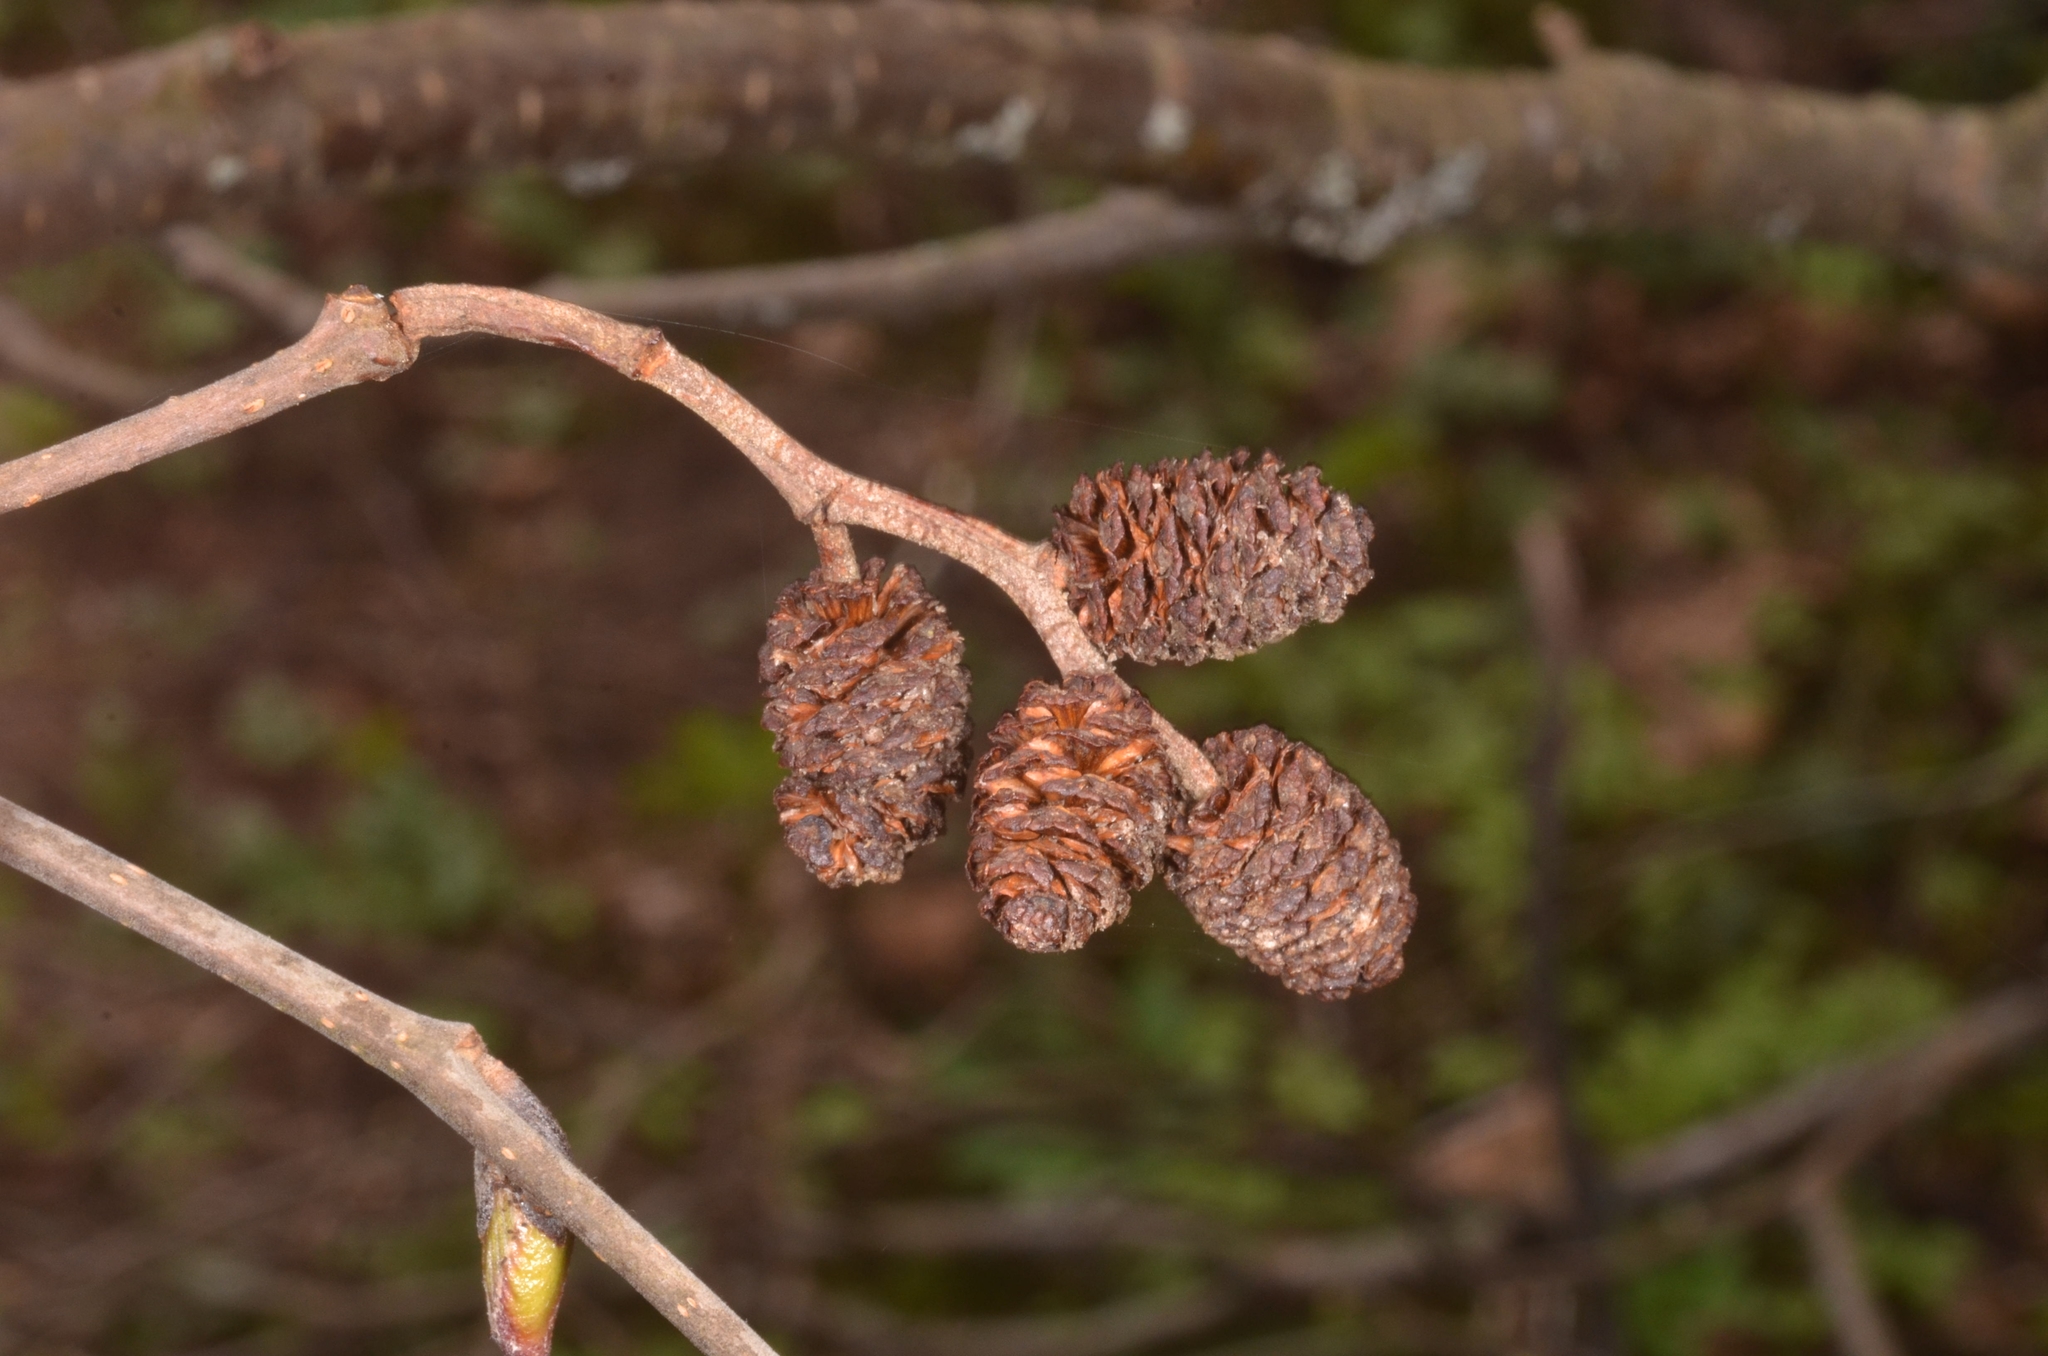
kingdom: Plantae
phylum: Tracheophyta
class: Magnoliopsida
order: Fagales
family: Betulaceae
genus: Alnus
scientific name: Alnus incana
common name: Grey alder
